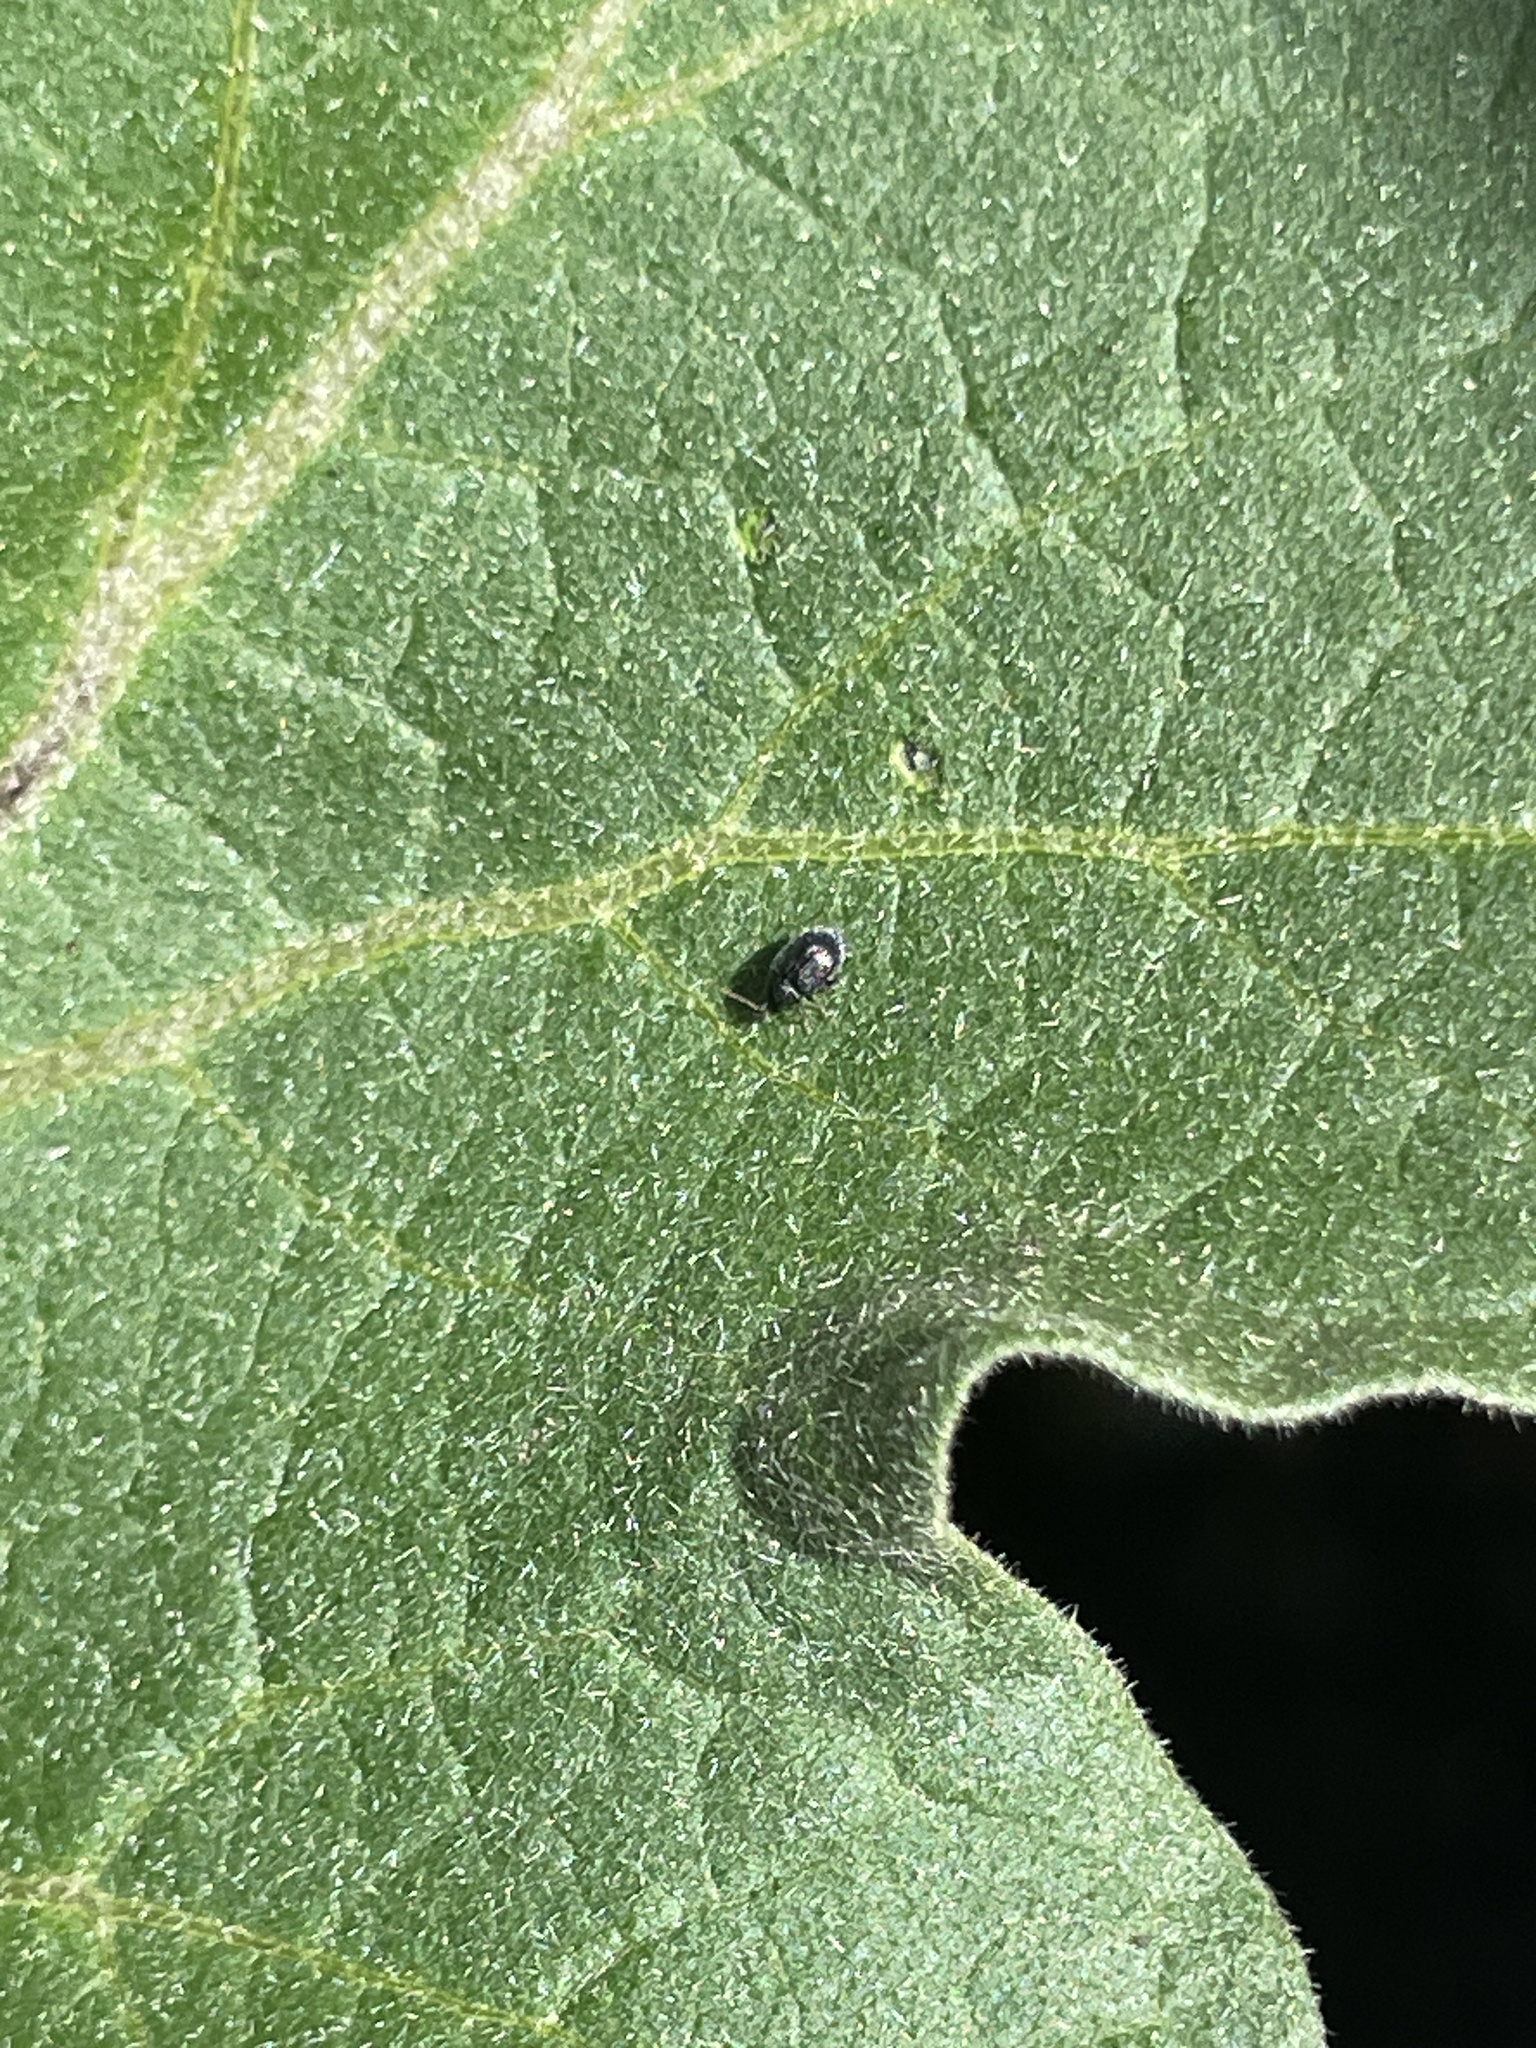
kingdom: Animalia
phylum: Arthropoda
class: Insecta
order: Coleoptera
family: Chrysomelidae
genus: Epitrix
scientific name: Epitrix fuscula
